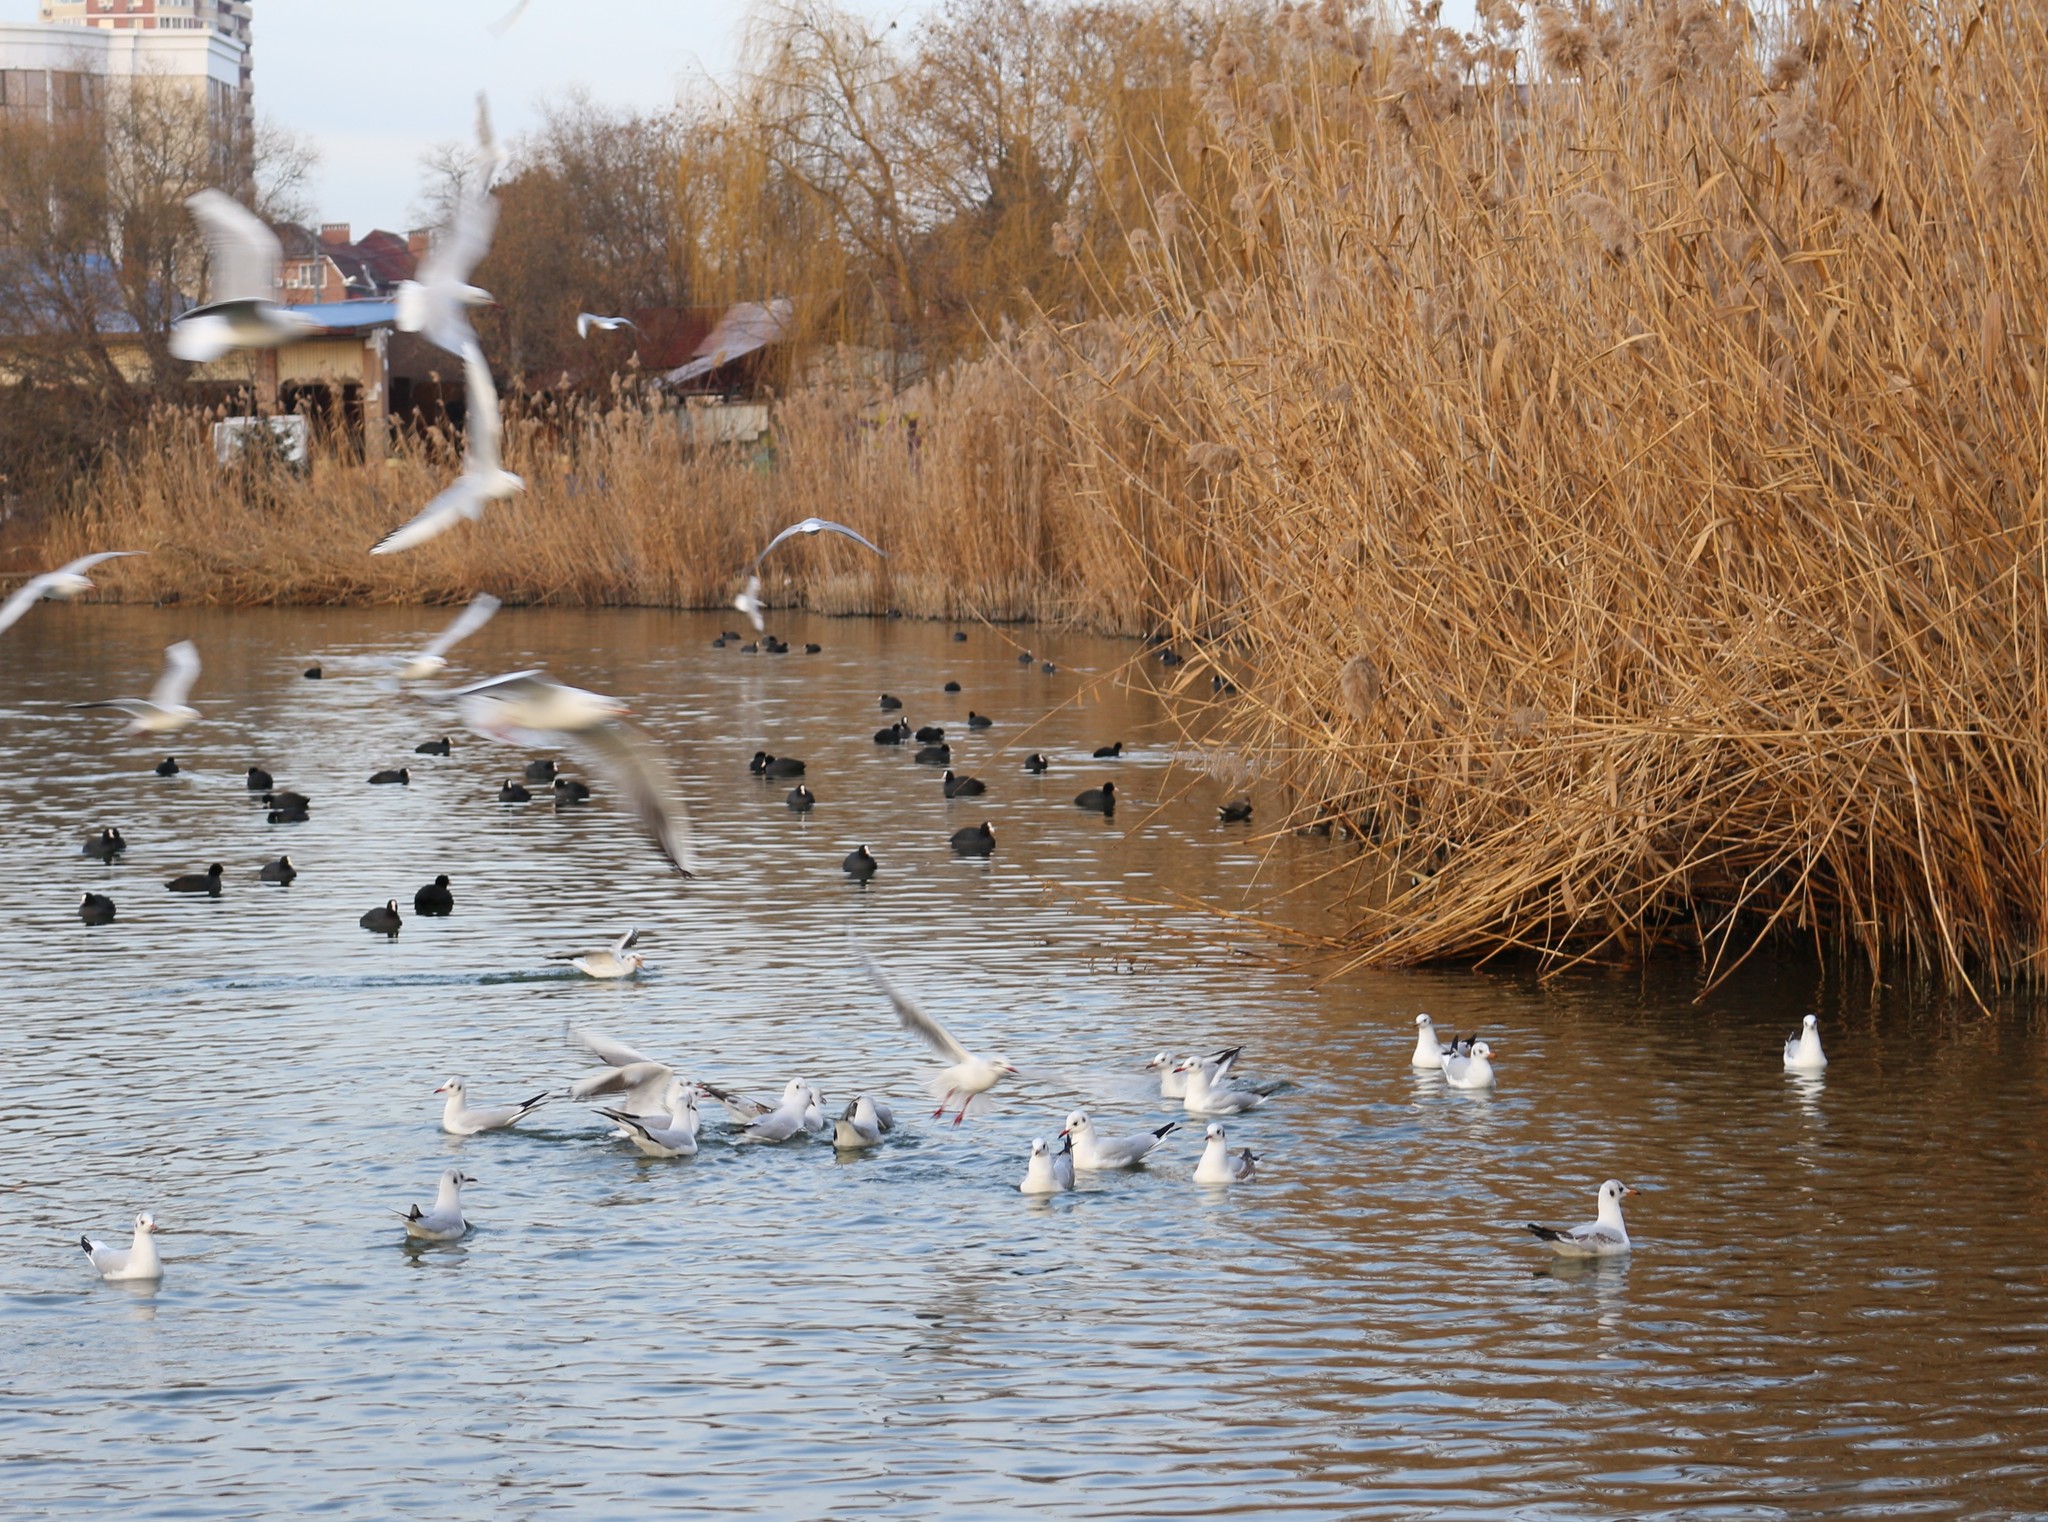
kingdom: Animalia
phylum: Chordata
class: Aves
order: Charadriiformes
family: Laridae
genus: Chroicocephalus
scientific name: Chroicocephalus ridibundus
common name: Black-headed gull
